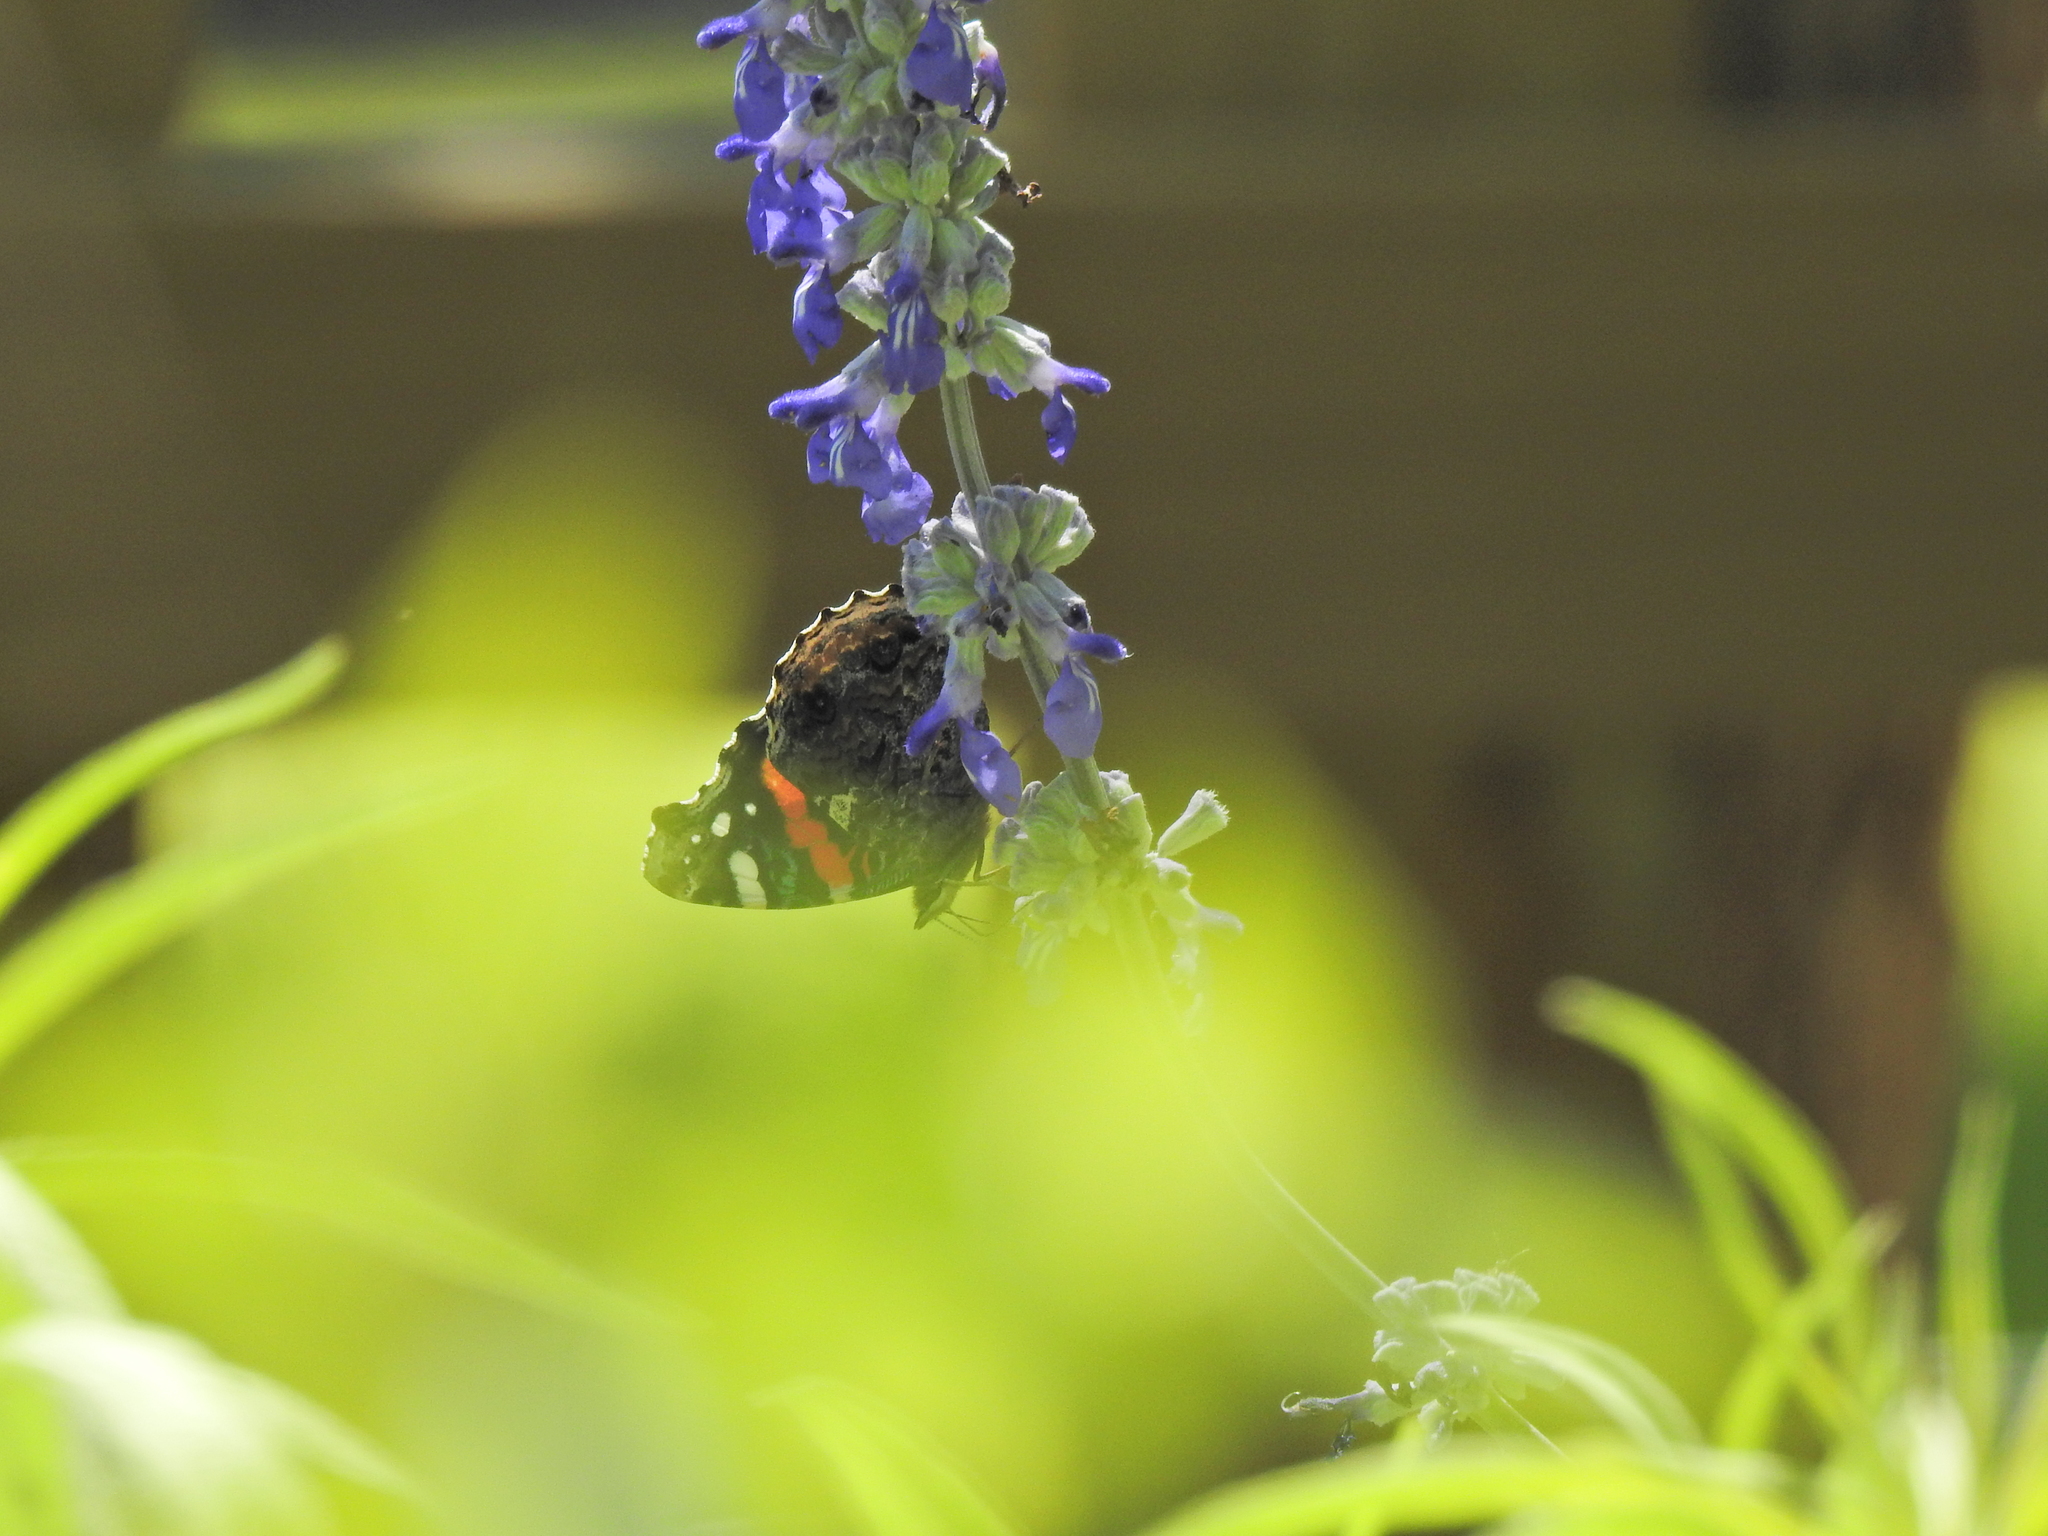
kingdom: Animalia
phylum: Arthropoda
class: Insecta
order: Lepidoptera
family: Nymphalidae
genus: Vanessa
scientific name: Vanessa atalanta
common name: Red admiral
